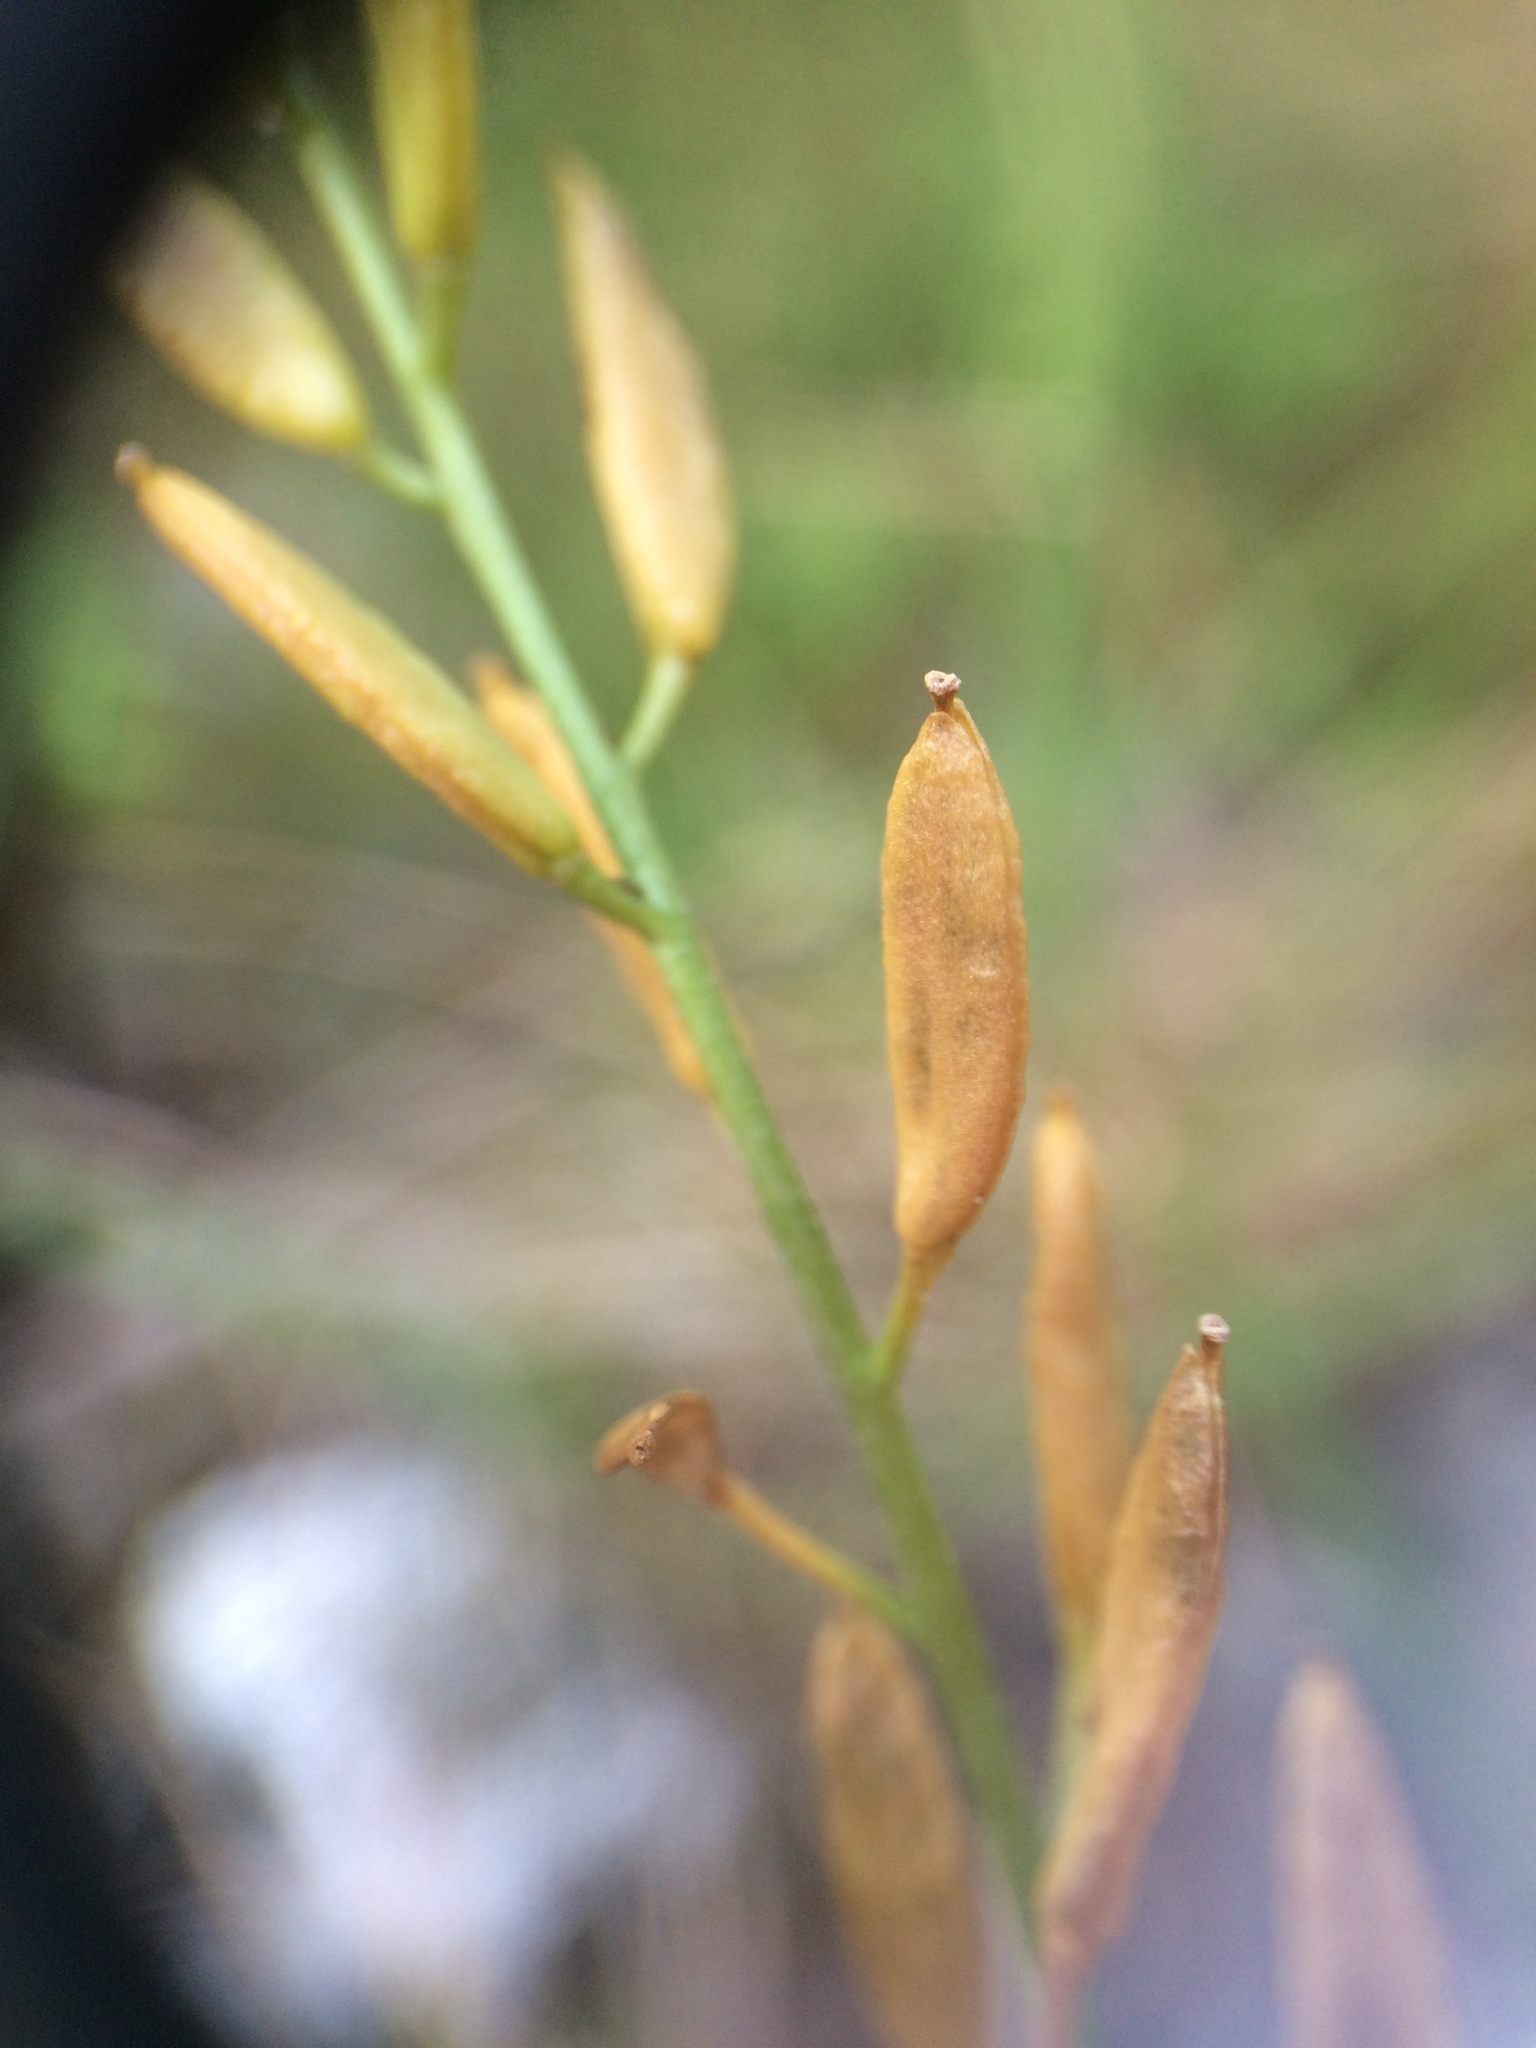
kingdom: Plantae
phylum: Tracheophyta
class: Magnoliopsida
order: Brassicales
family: Brassicaceae
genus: Draba
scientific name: Draba glabella
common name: Glaucous draba
